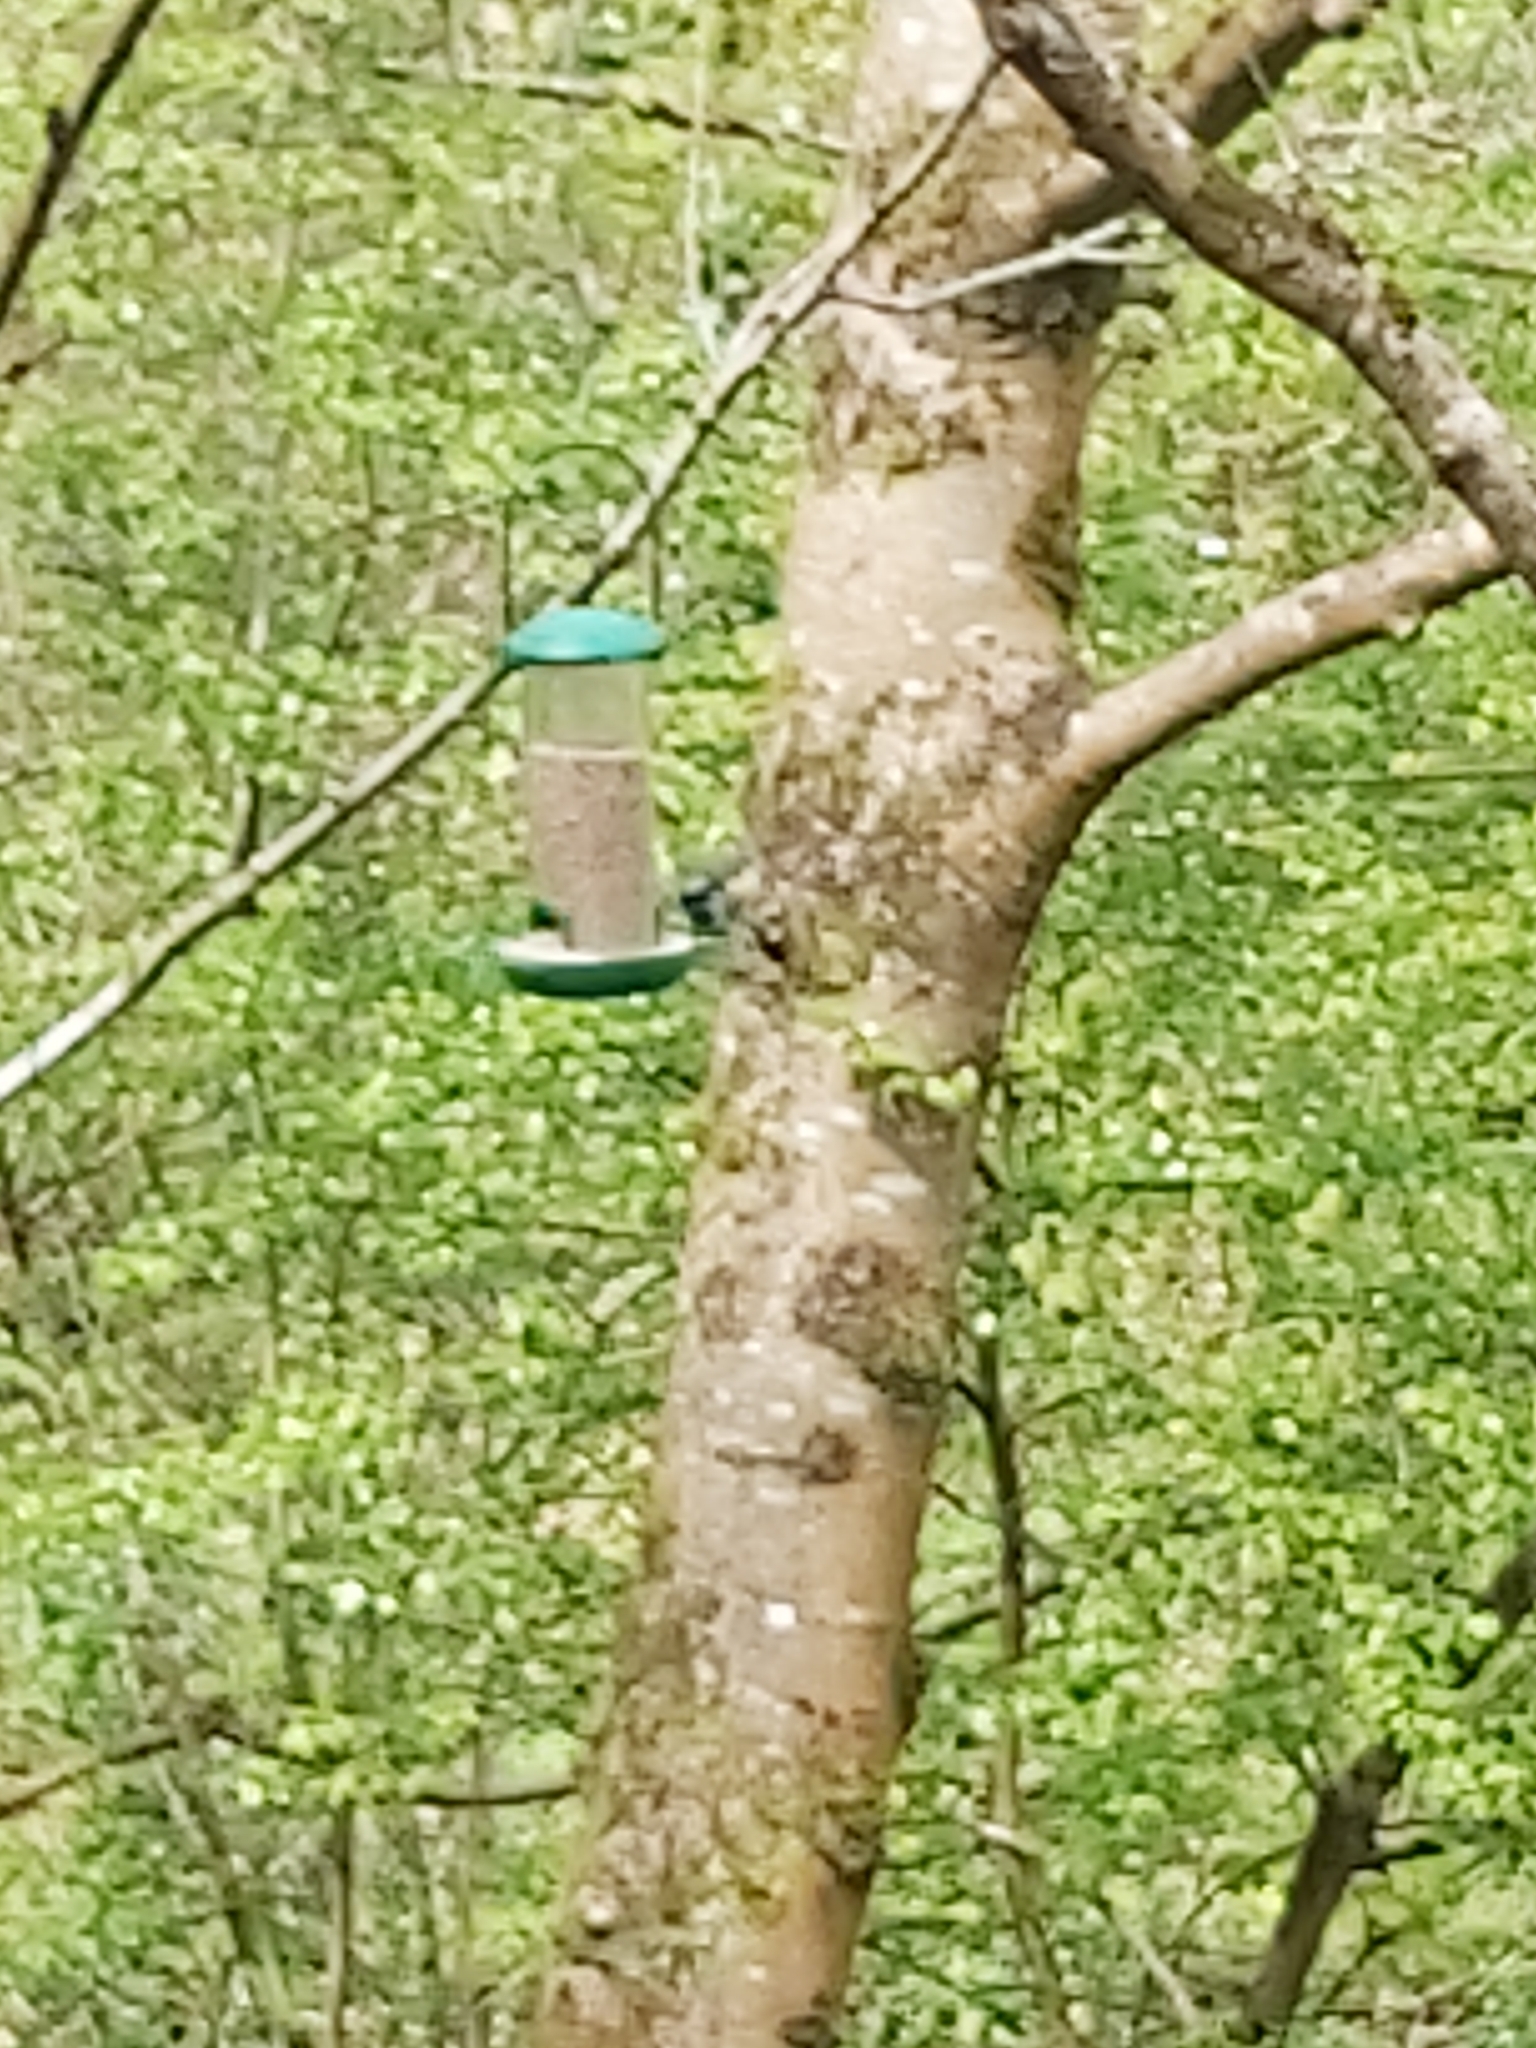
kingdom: Animalia
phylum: Chordata
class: Aves
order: Passeriformes
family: Paridae
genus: Cyanistes
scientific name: Cyanistes caeruleus
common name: Eurasian blue tit
